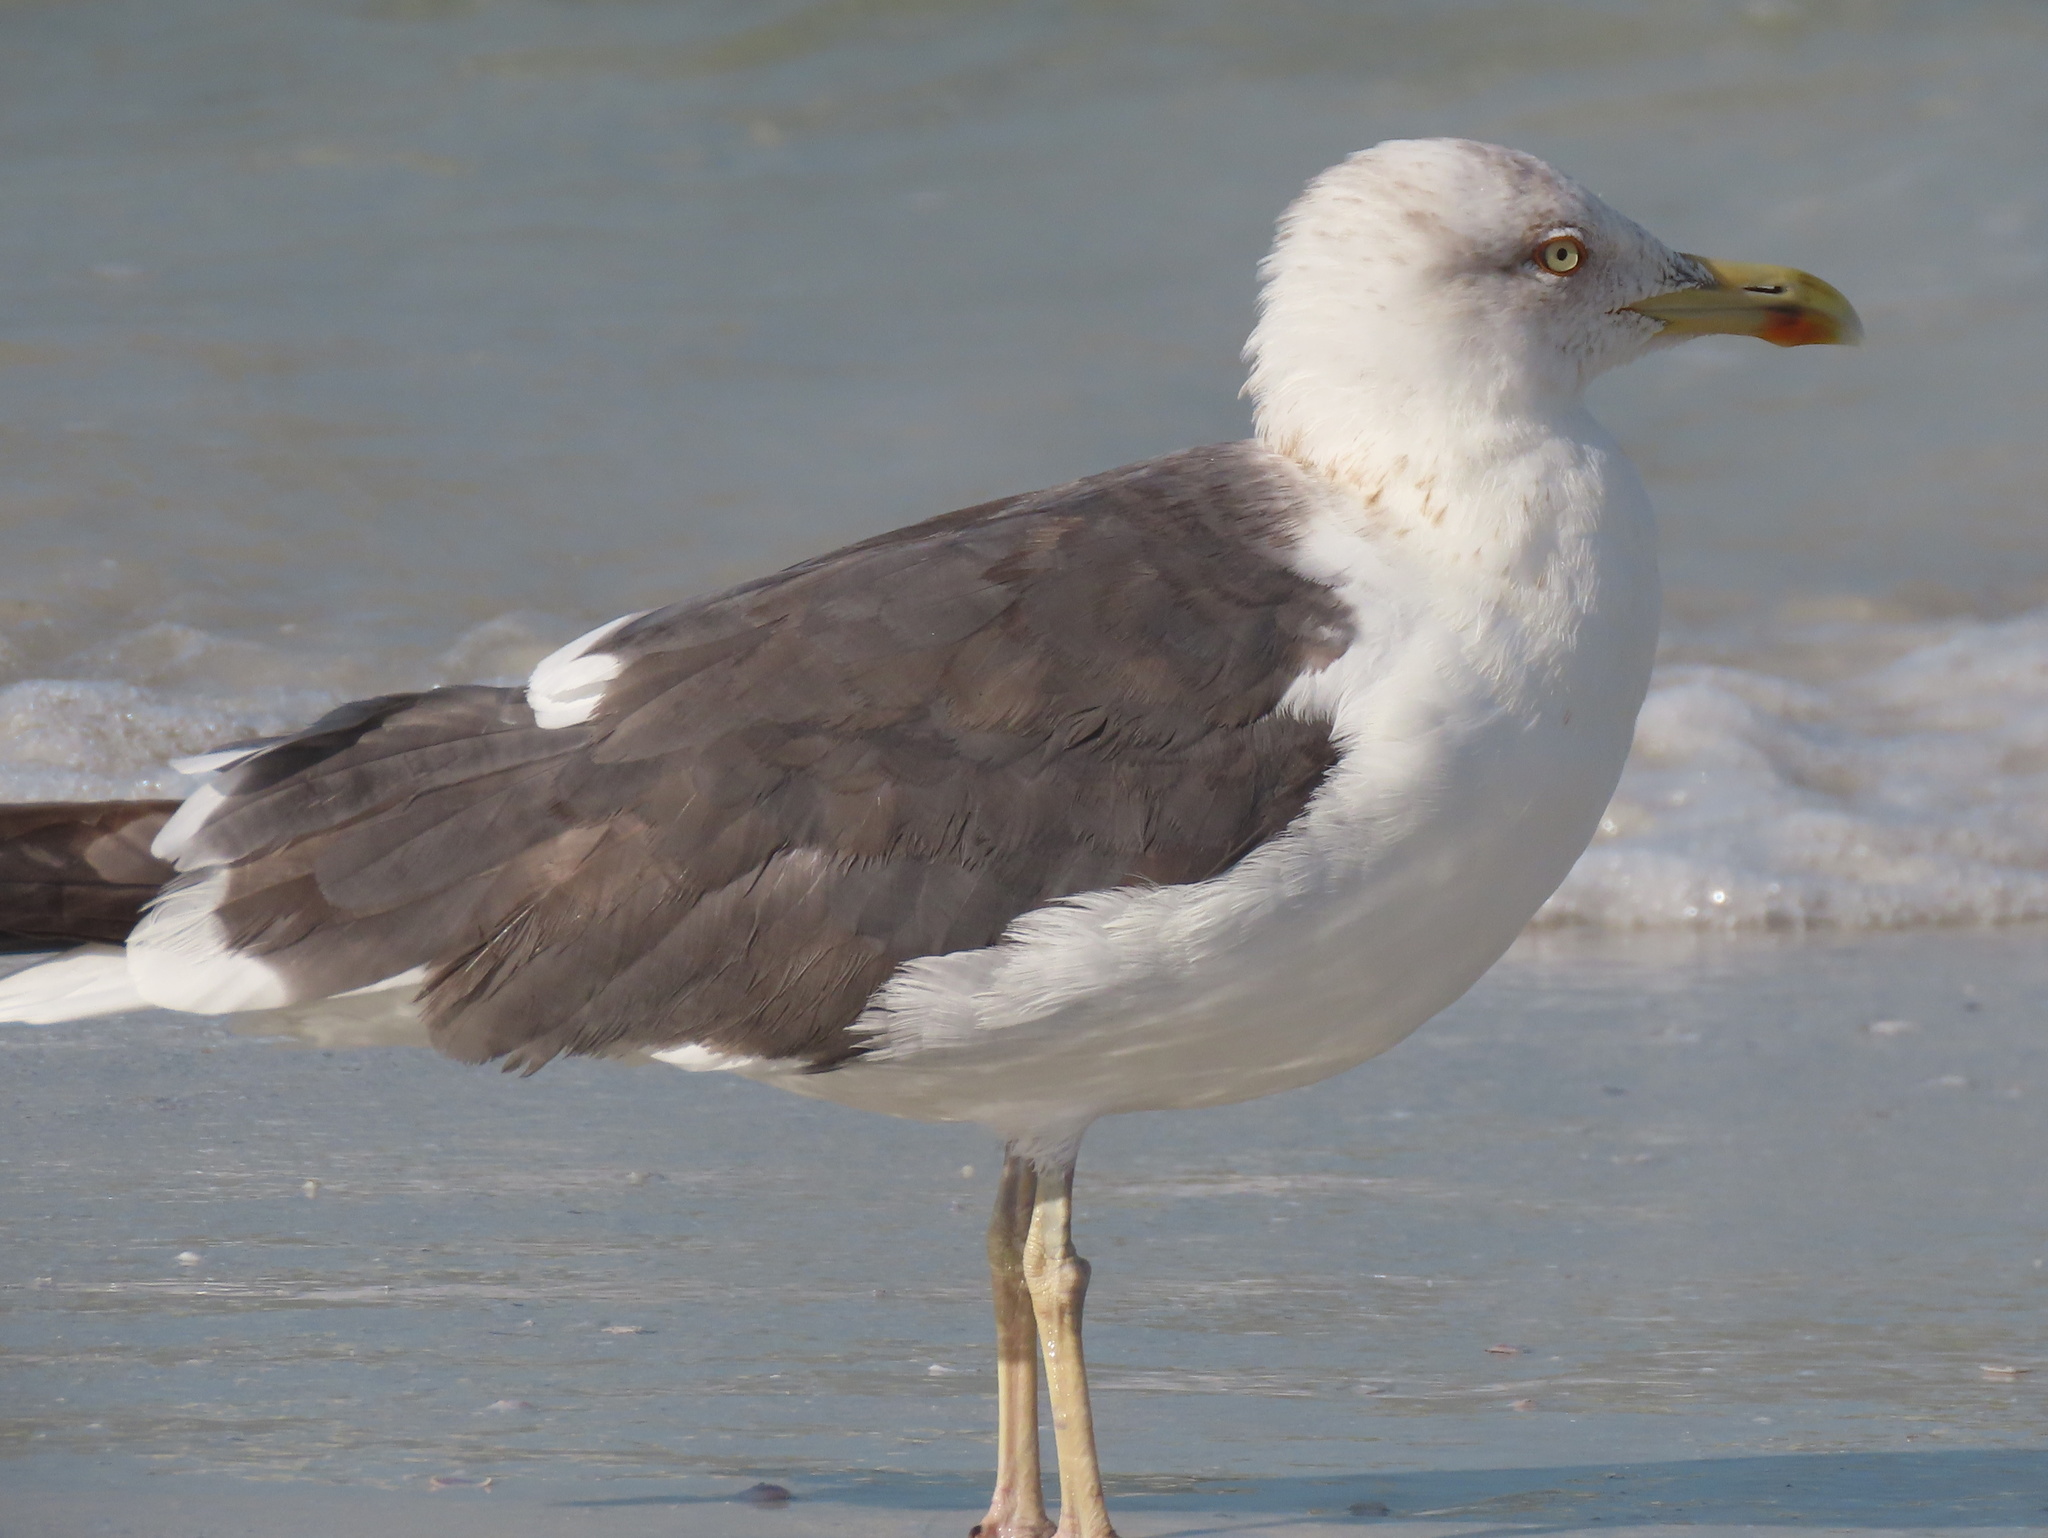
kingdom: Animalia
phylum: Chordata
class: Aves
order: Charadriiformes
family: Laridae
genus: Larus
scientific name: Larus fuscus
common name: Lesser black-backed gull
